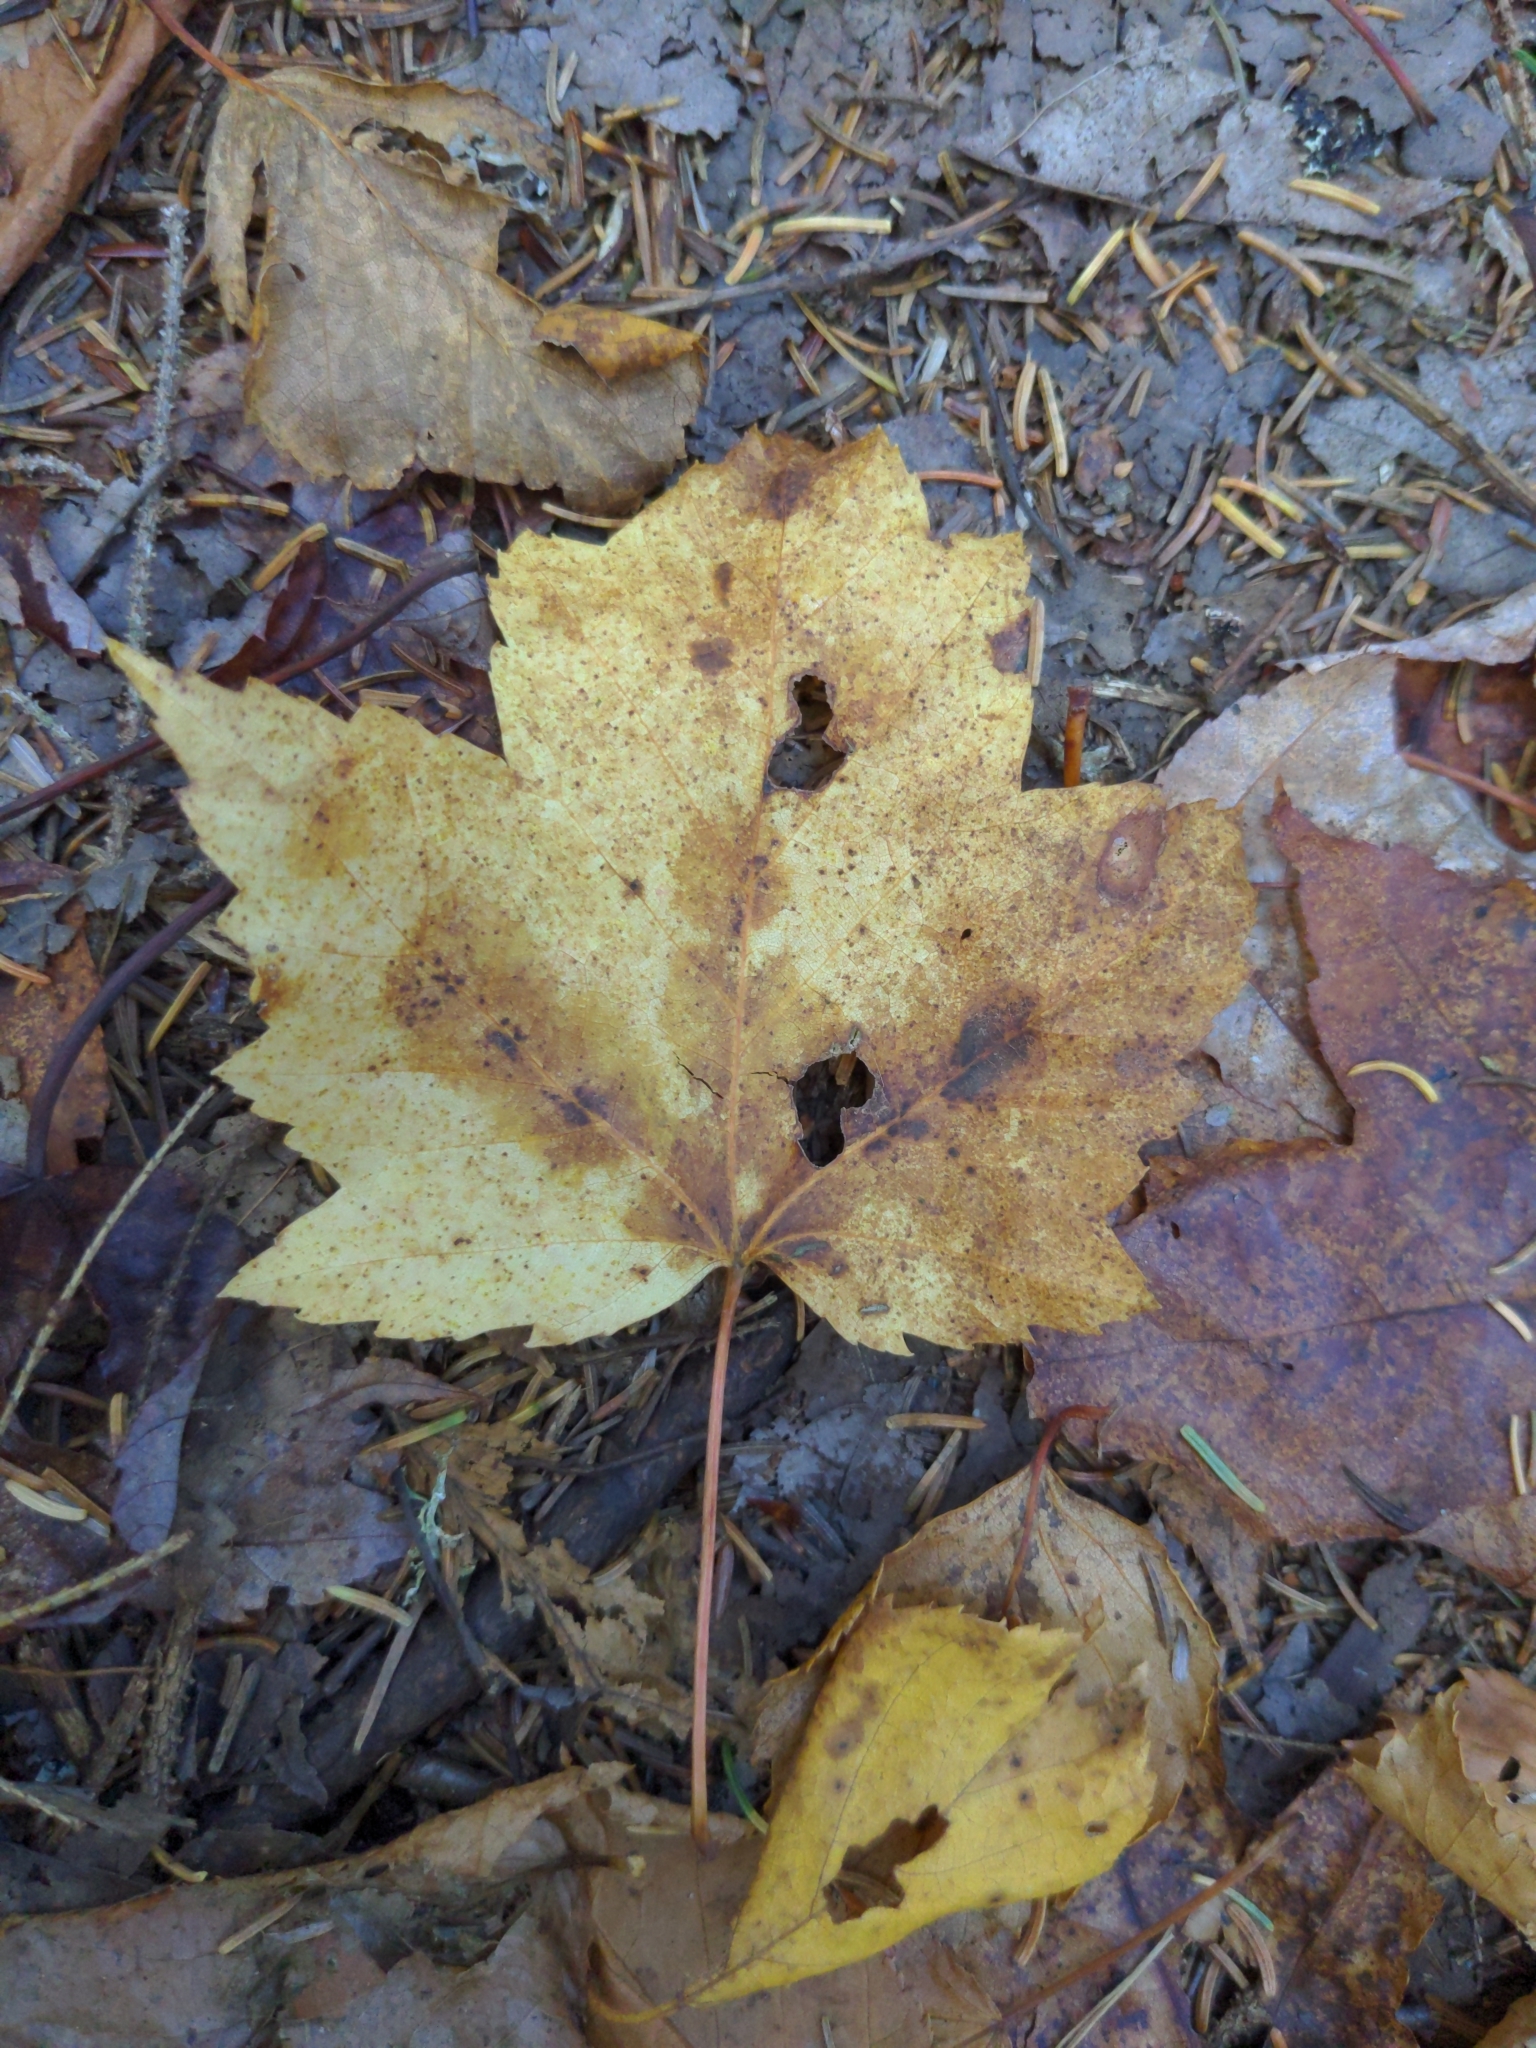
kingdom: Plantae
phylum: Tracheophyta
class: Magnoliopsida
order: Sapindales
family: Sapindaceae
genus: Acer
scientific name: Acer rubrum
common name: Red maple
